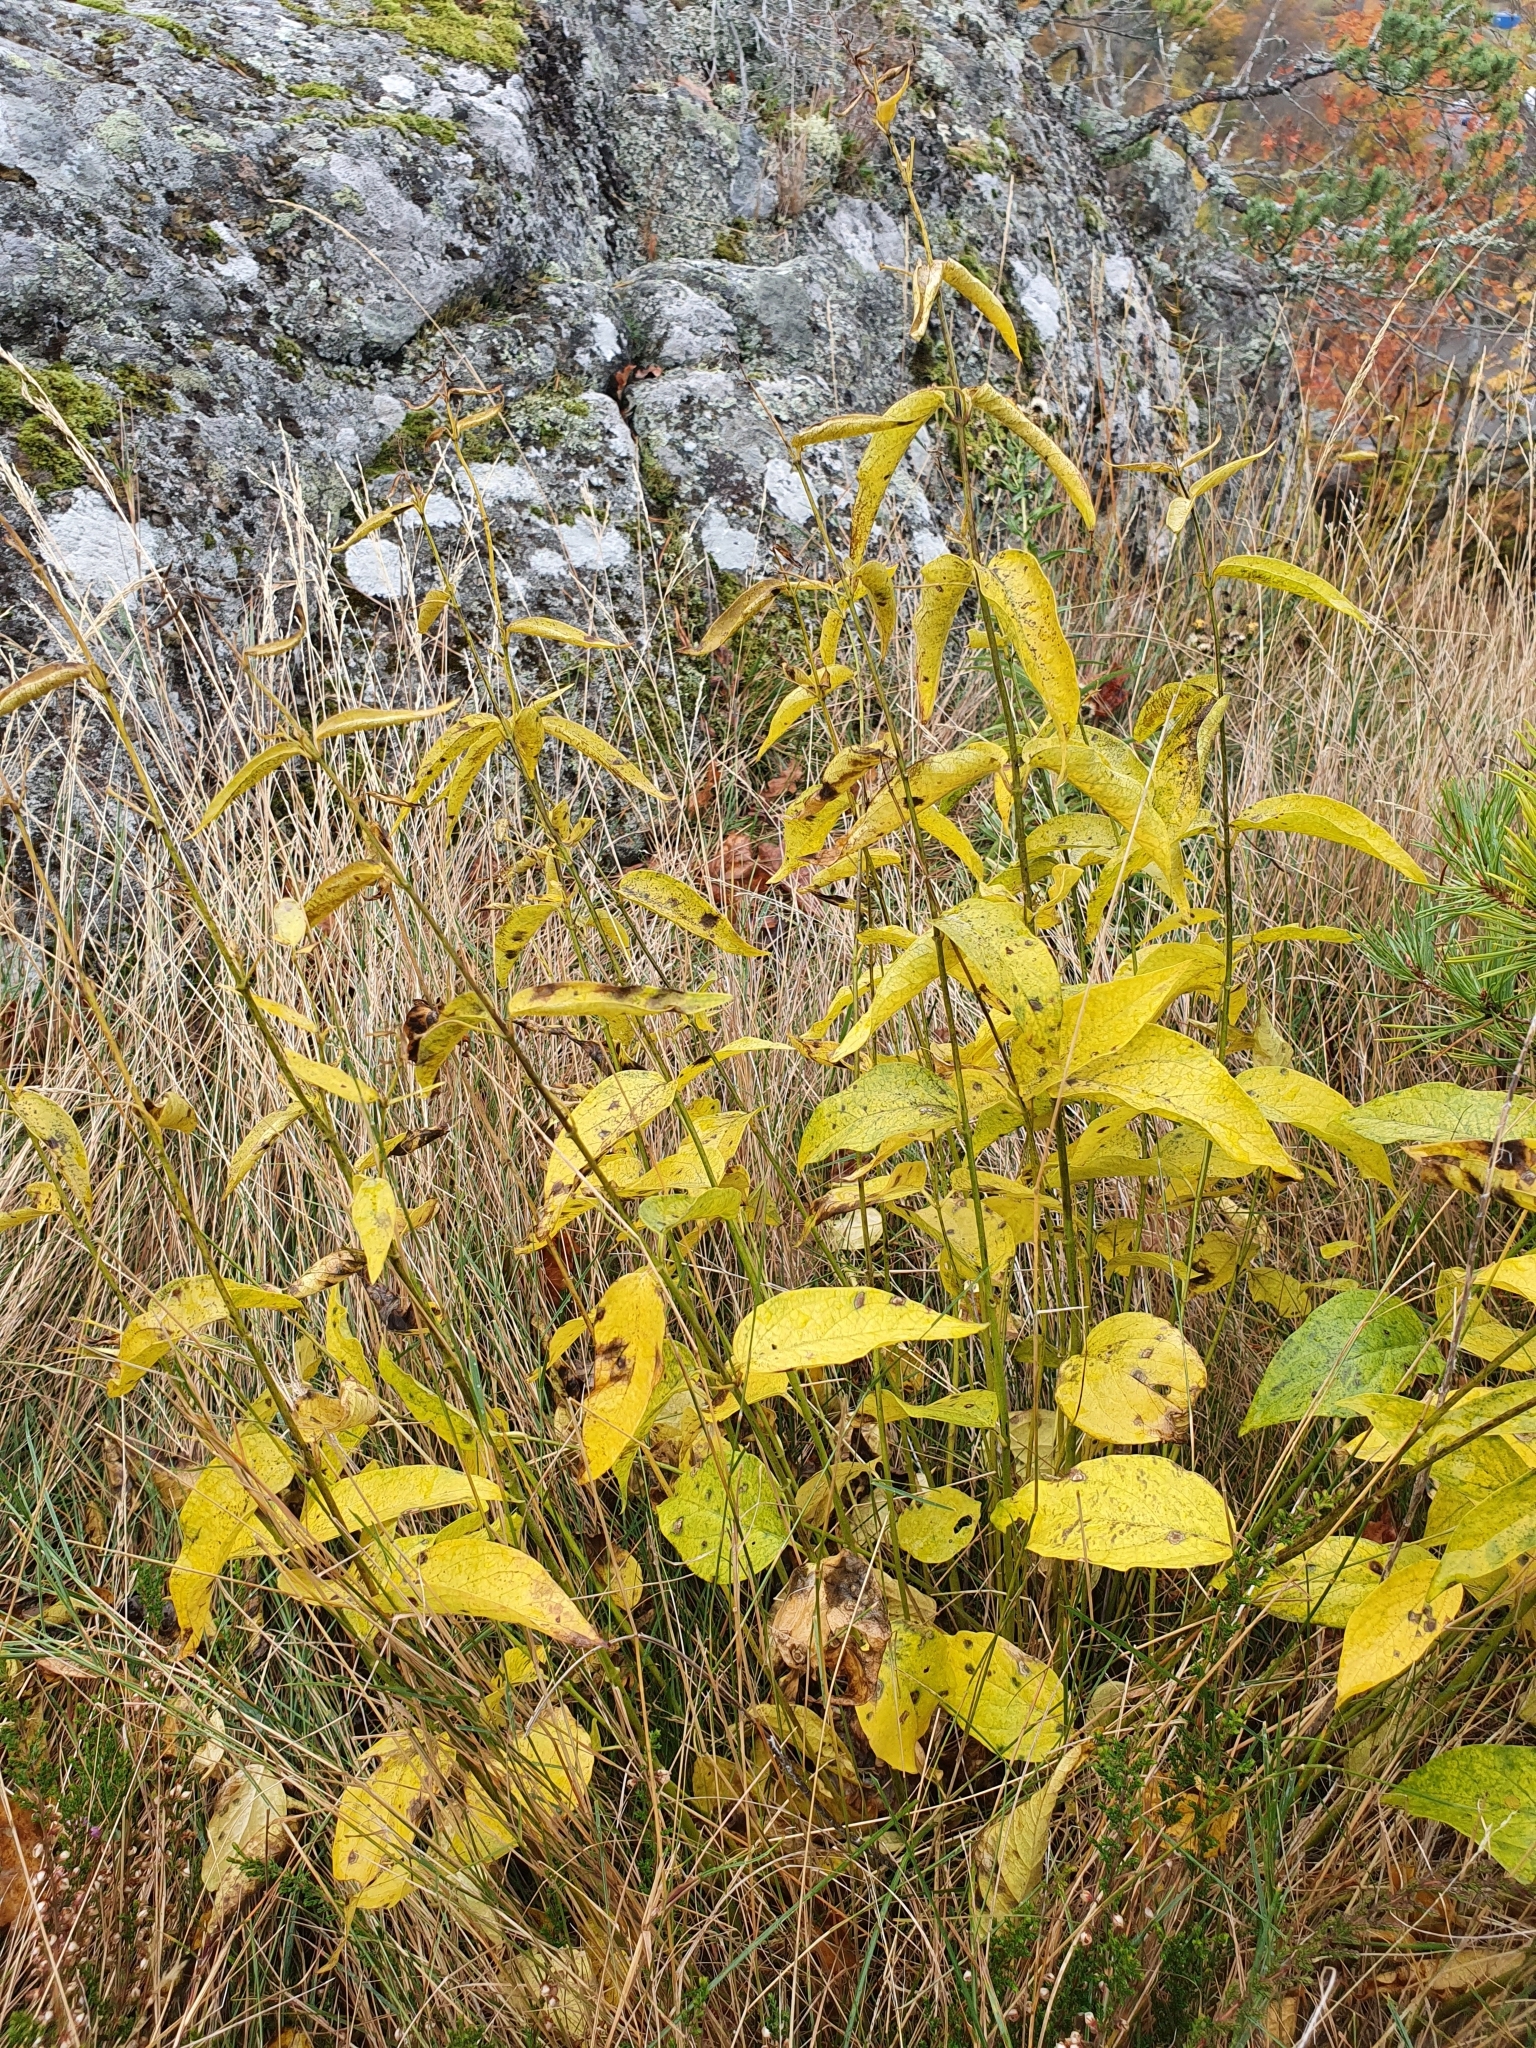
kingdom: Plantae
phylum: Tracheophyta
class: Magnoliopsida
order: Gentianales
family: Apocynaceae
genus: Vincetoxicum
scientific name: Vincetoxicum hirundinaria
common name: White swallowwort
